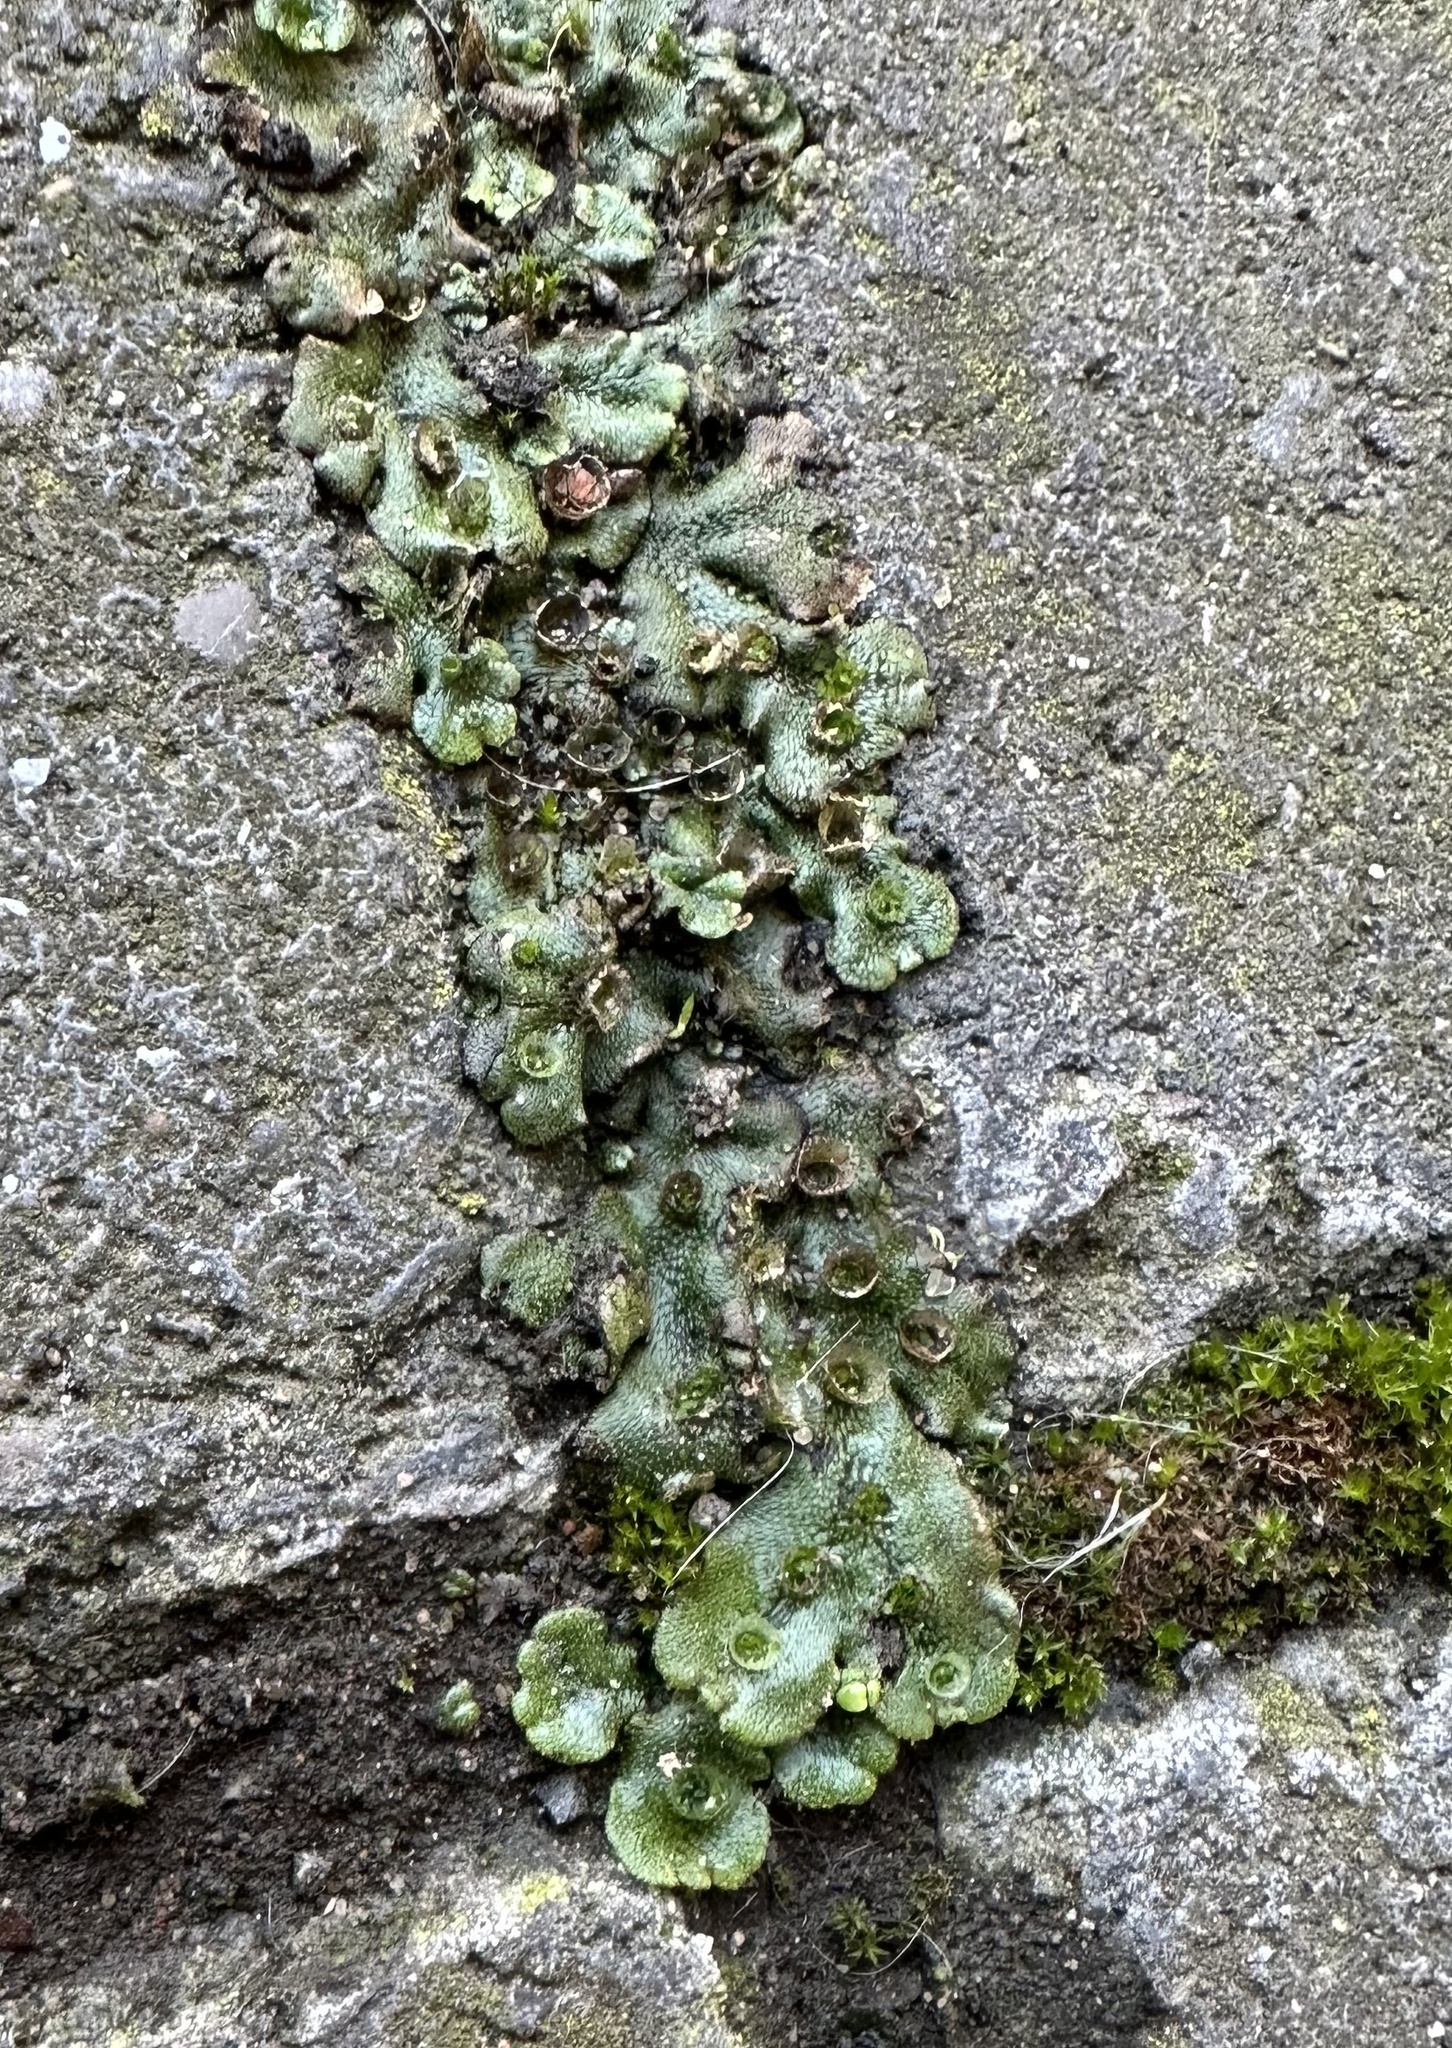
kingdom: Plantae
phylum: Marchantiophyta
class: Marchantiopsida
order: Marchantiales
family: Marchantiaceae
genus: Marchantia
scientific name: Marchantia polymorpha
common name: Common liverwort
